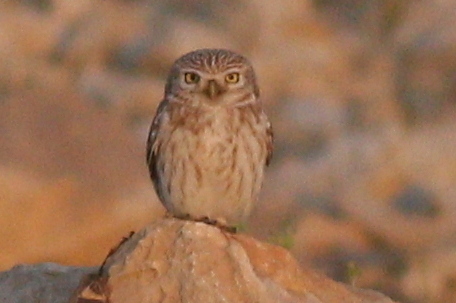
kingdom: Animalia
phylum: Chordata
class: Aves
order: Strigiformes
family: Strigidae
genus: Athene
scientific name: Athene noctua
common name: Little owl
